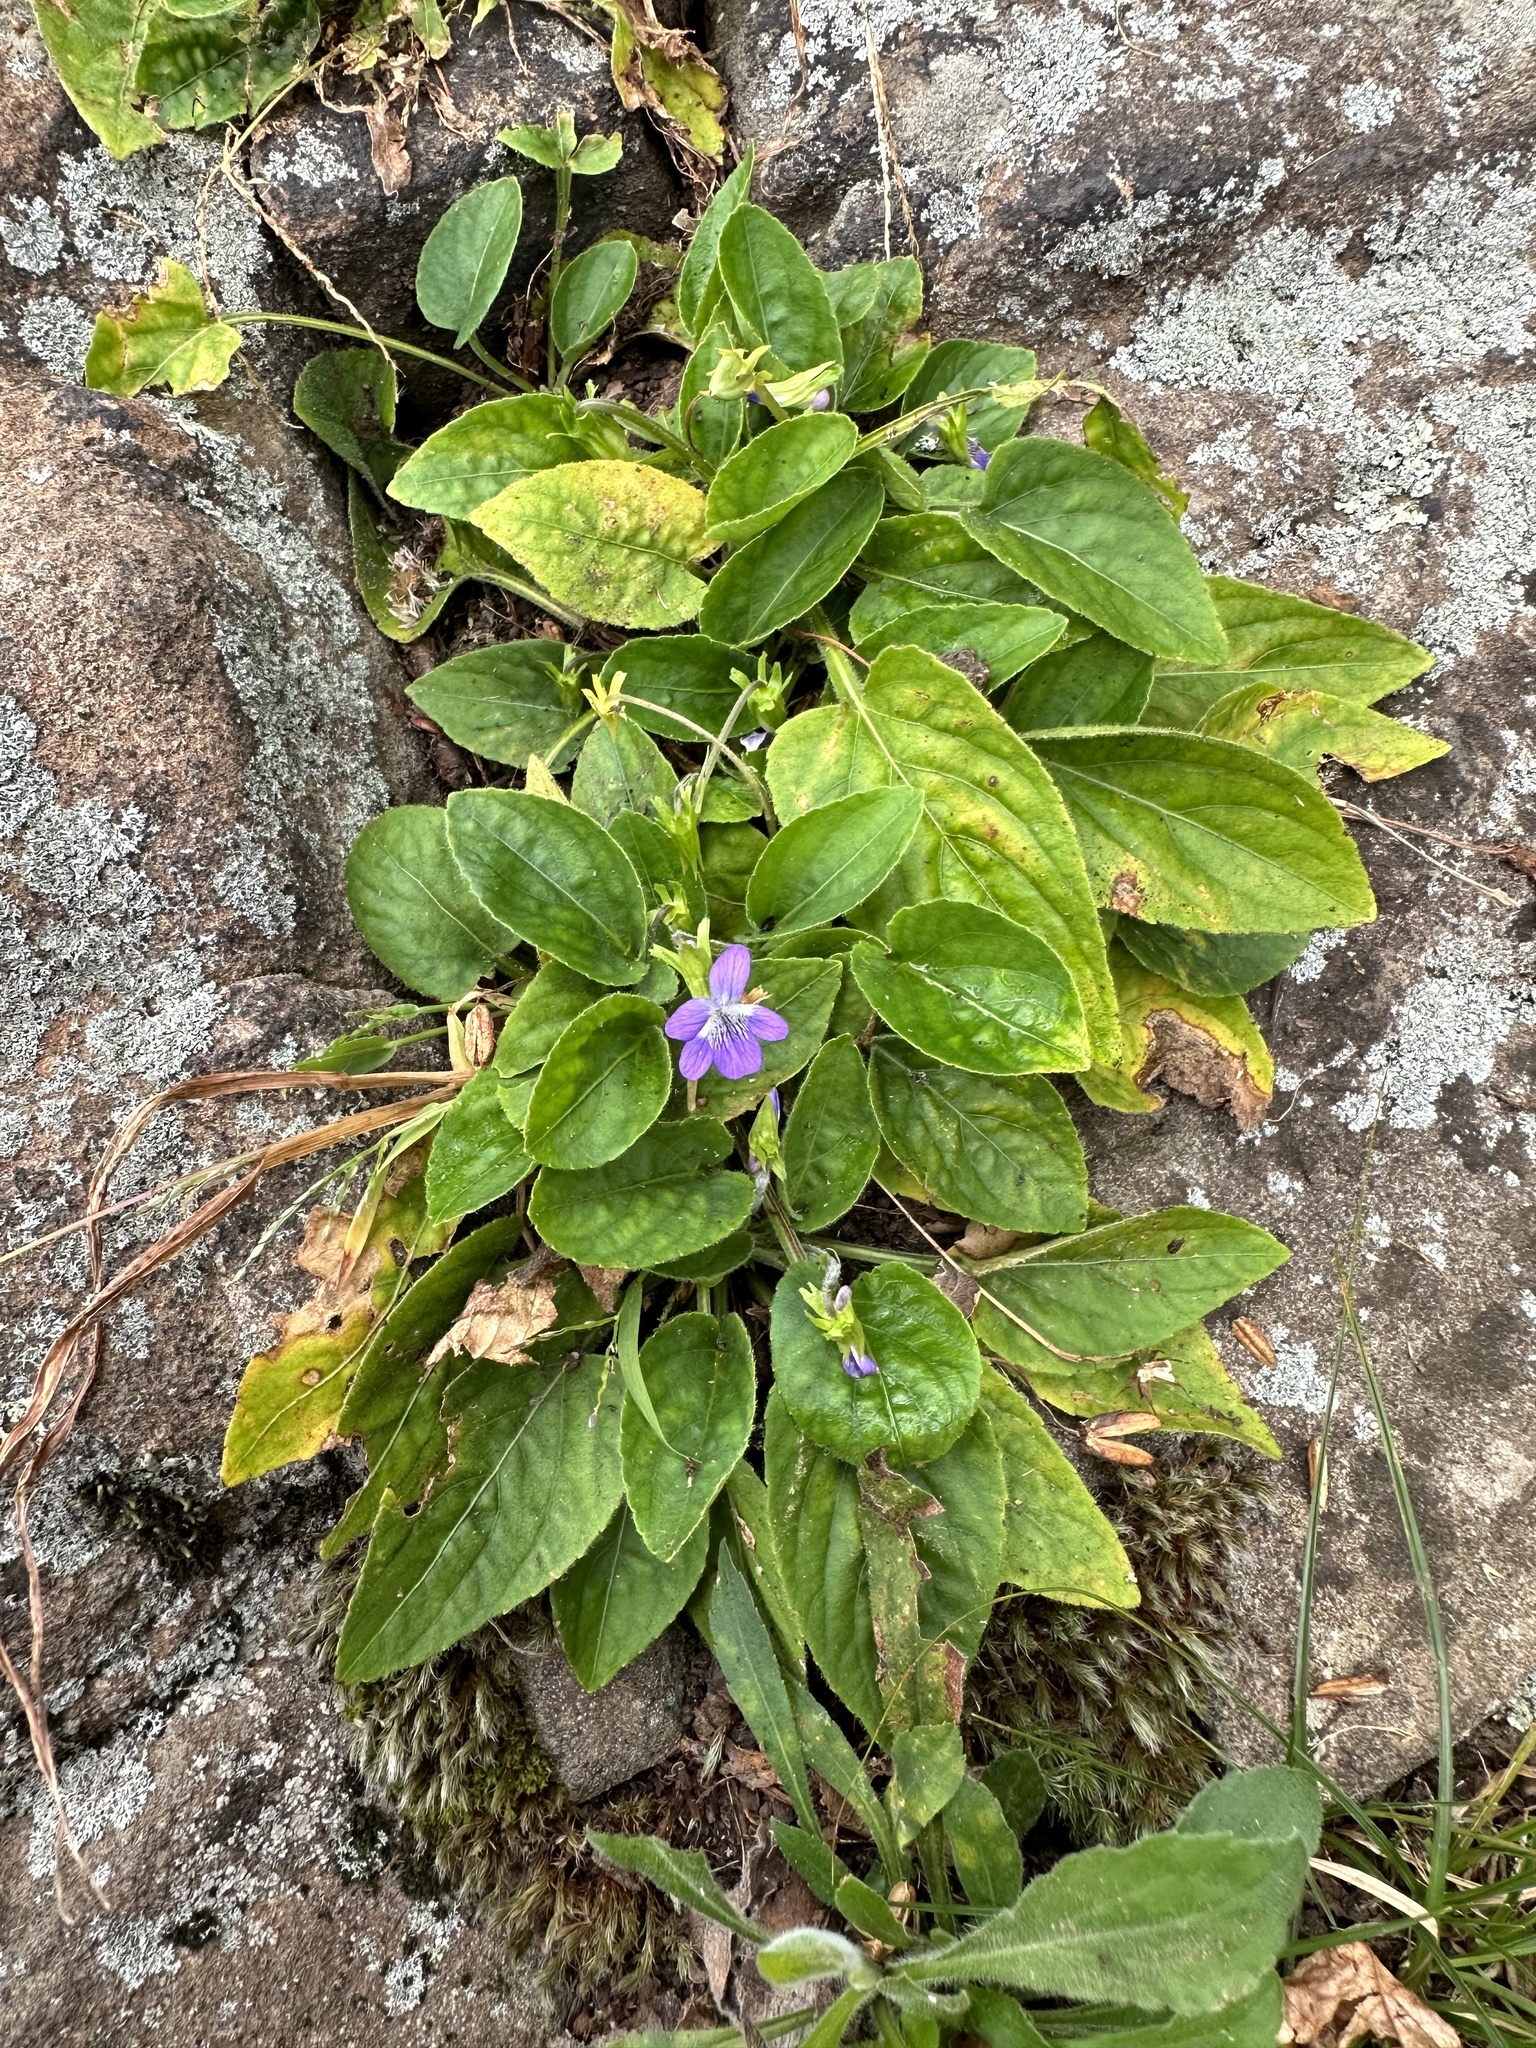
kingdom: Plantae
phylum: Tracheophyta
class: Magnoliopsida
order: Malpighiales
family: Violaceae
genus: Viola
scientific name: Viola fimbriatula
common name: Sand violet
